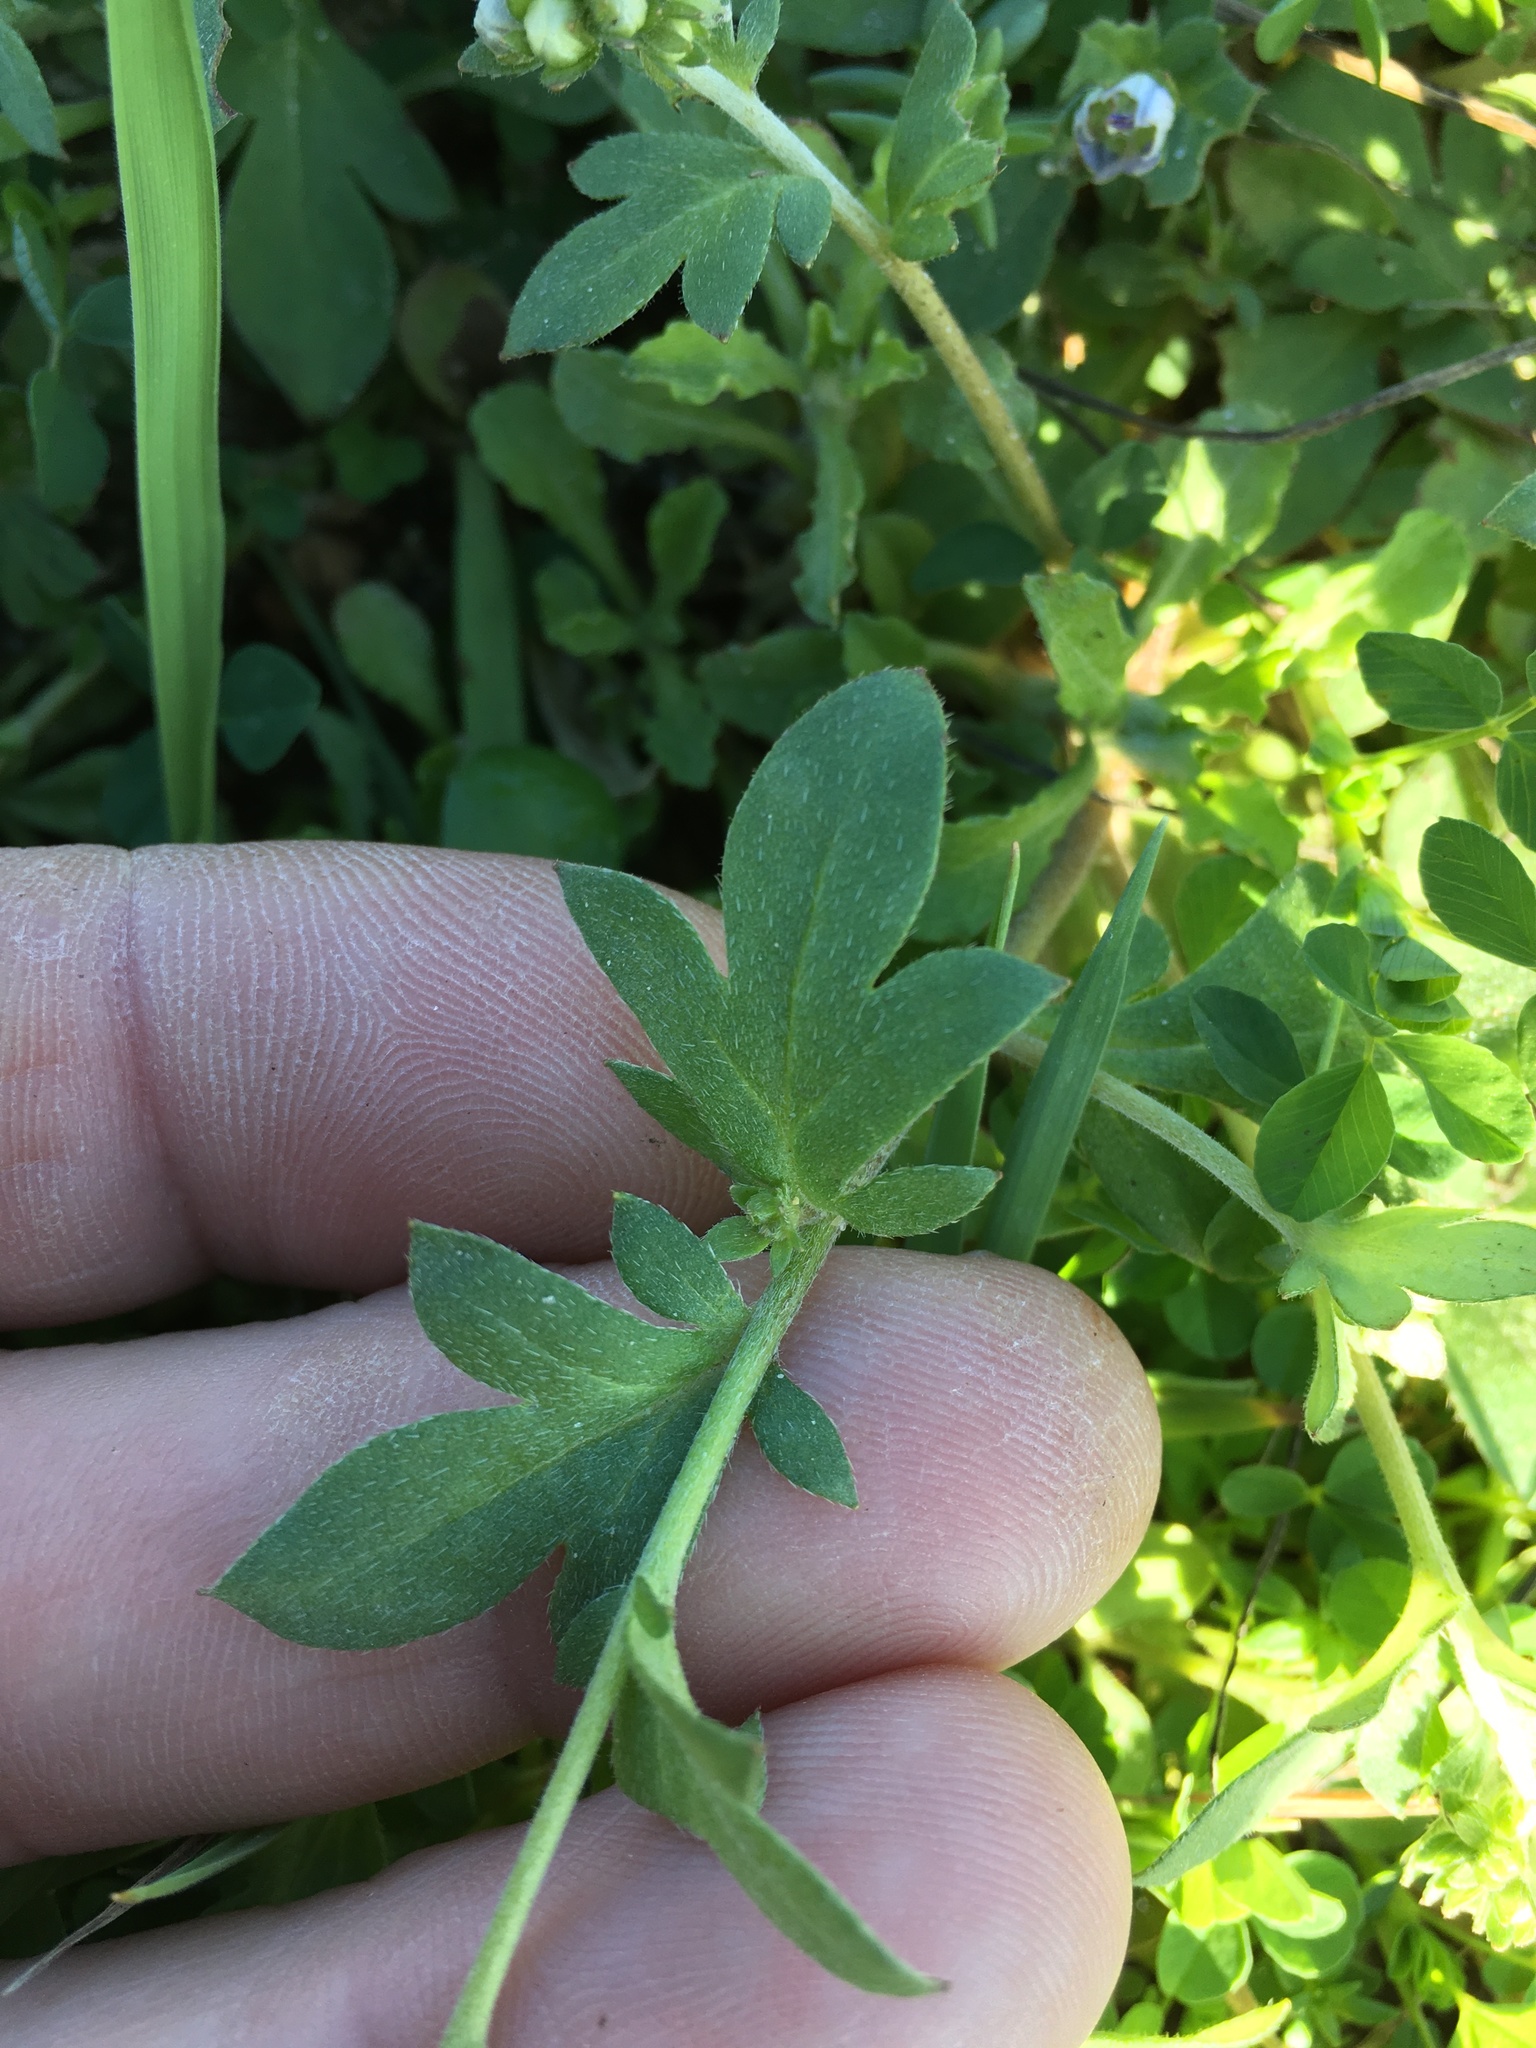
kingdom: Plantae
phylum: Tracheophyta
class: Magnoliopsida
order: Boraginales
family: Hydrophyllaceae
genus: Phacelia
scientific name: Phacelia dubia
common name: Appalachian phacelia
